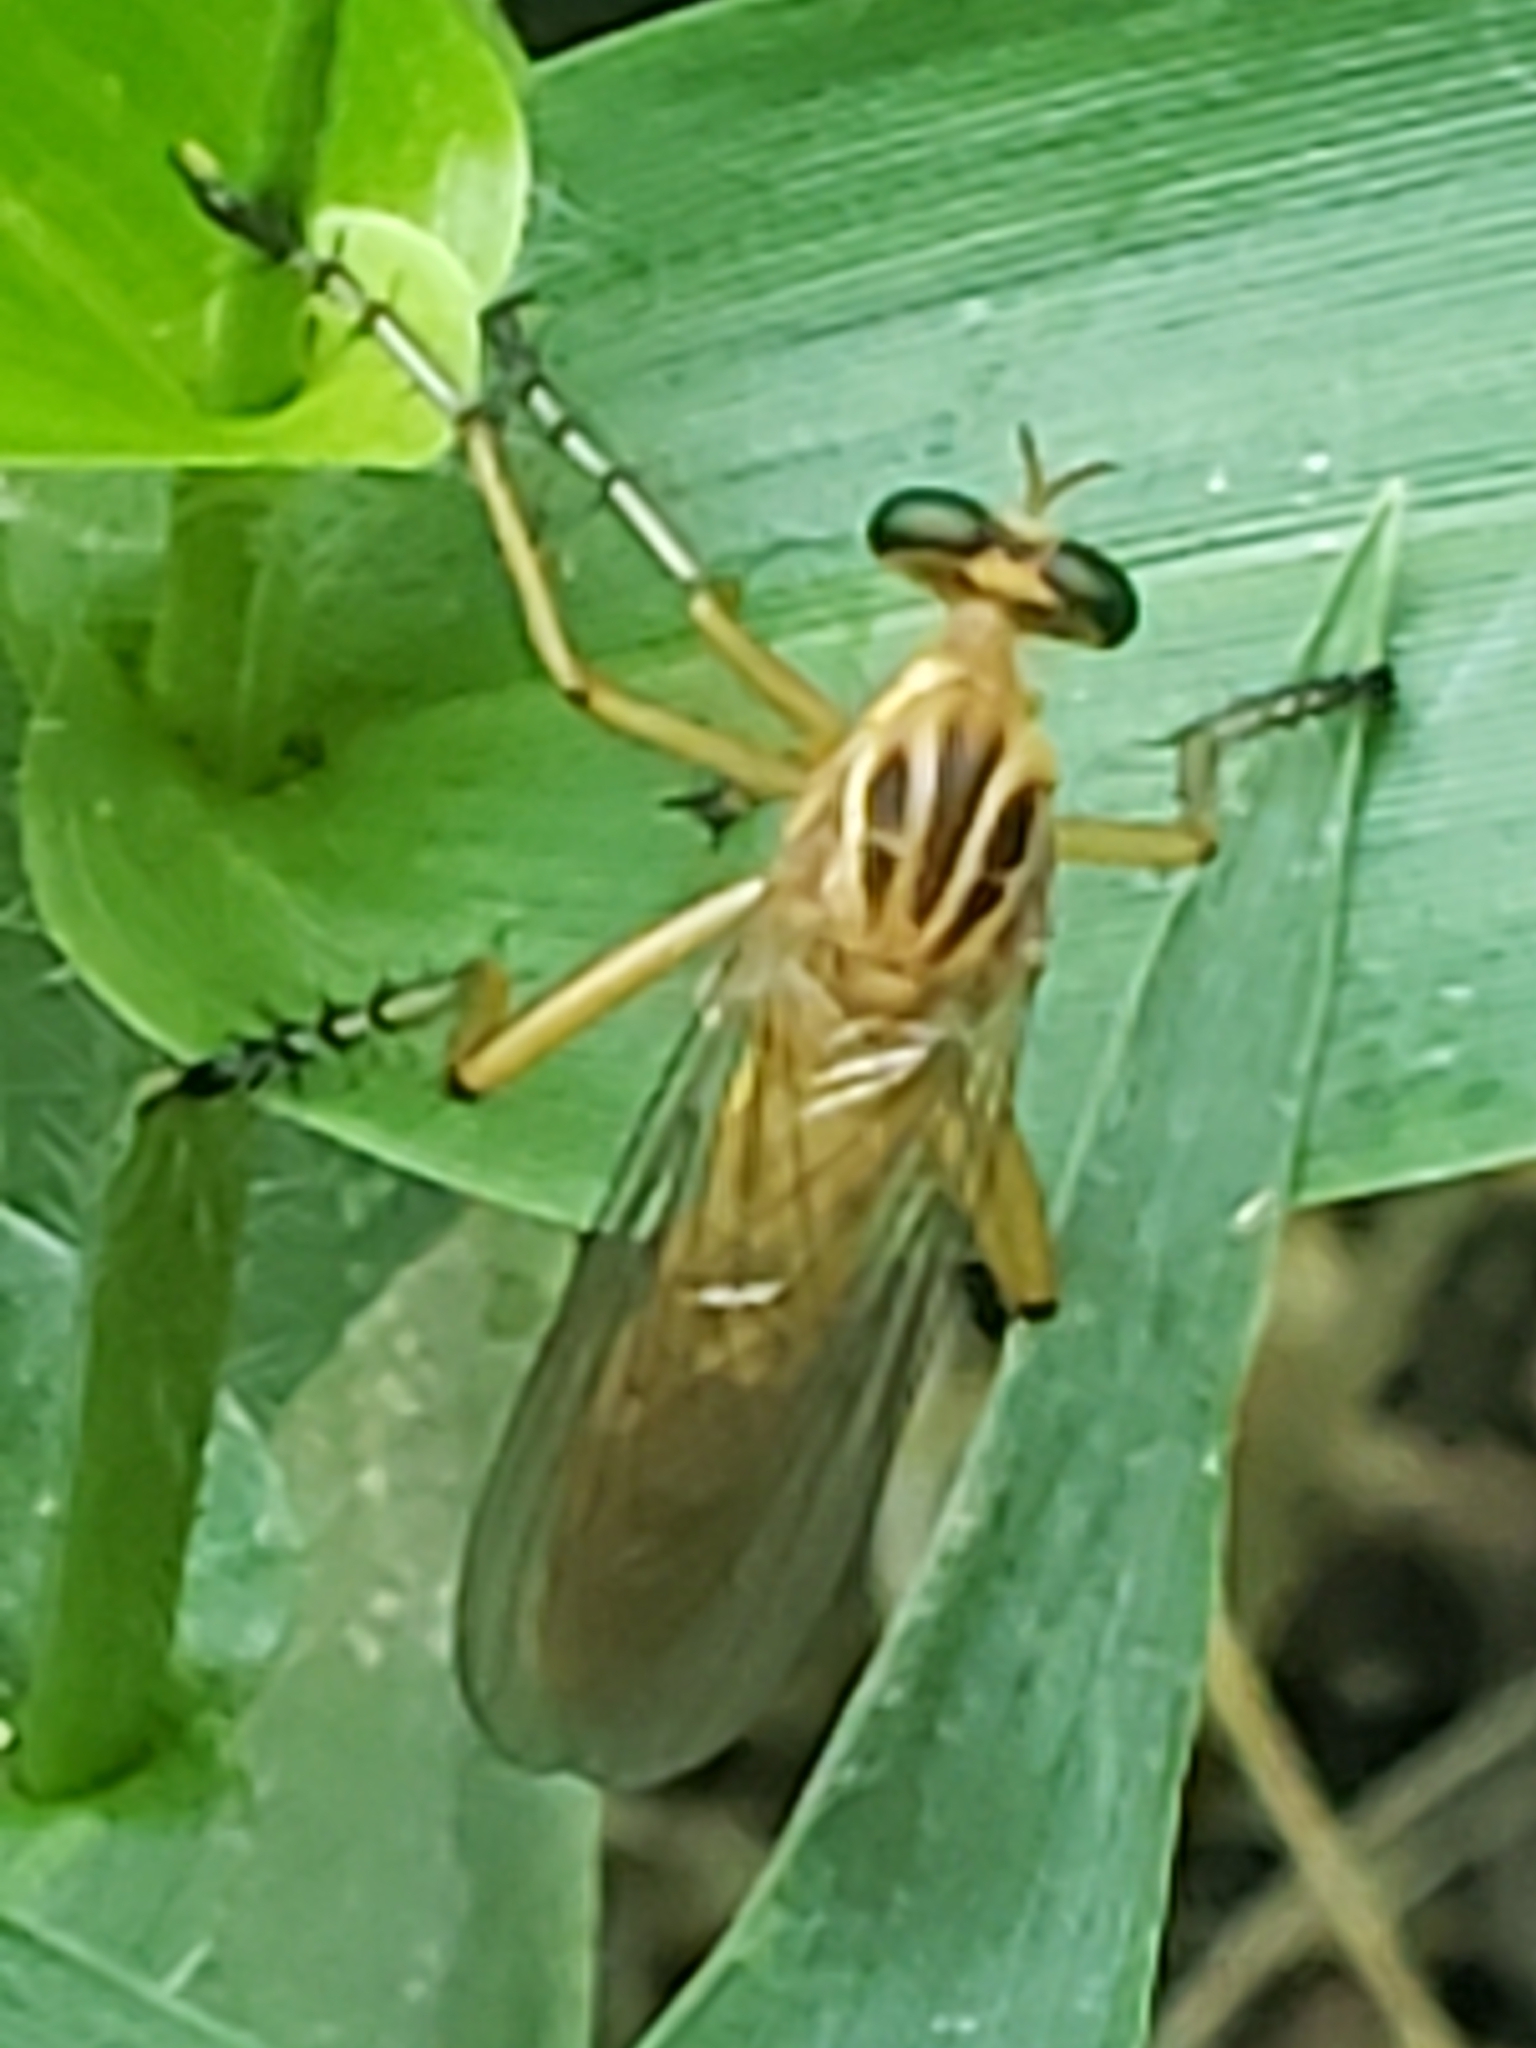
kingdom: Animalia
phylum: Arthropoda
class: Insecta
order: Diptera
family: Asilidae
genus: Diogmites
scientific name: Diogmites neoternatus
